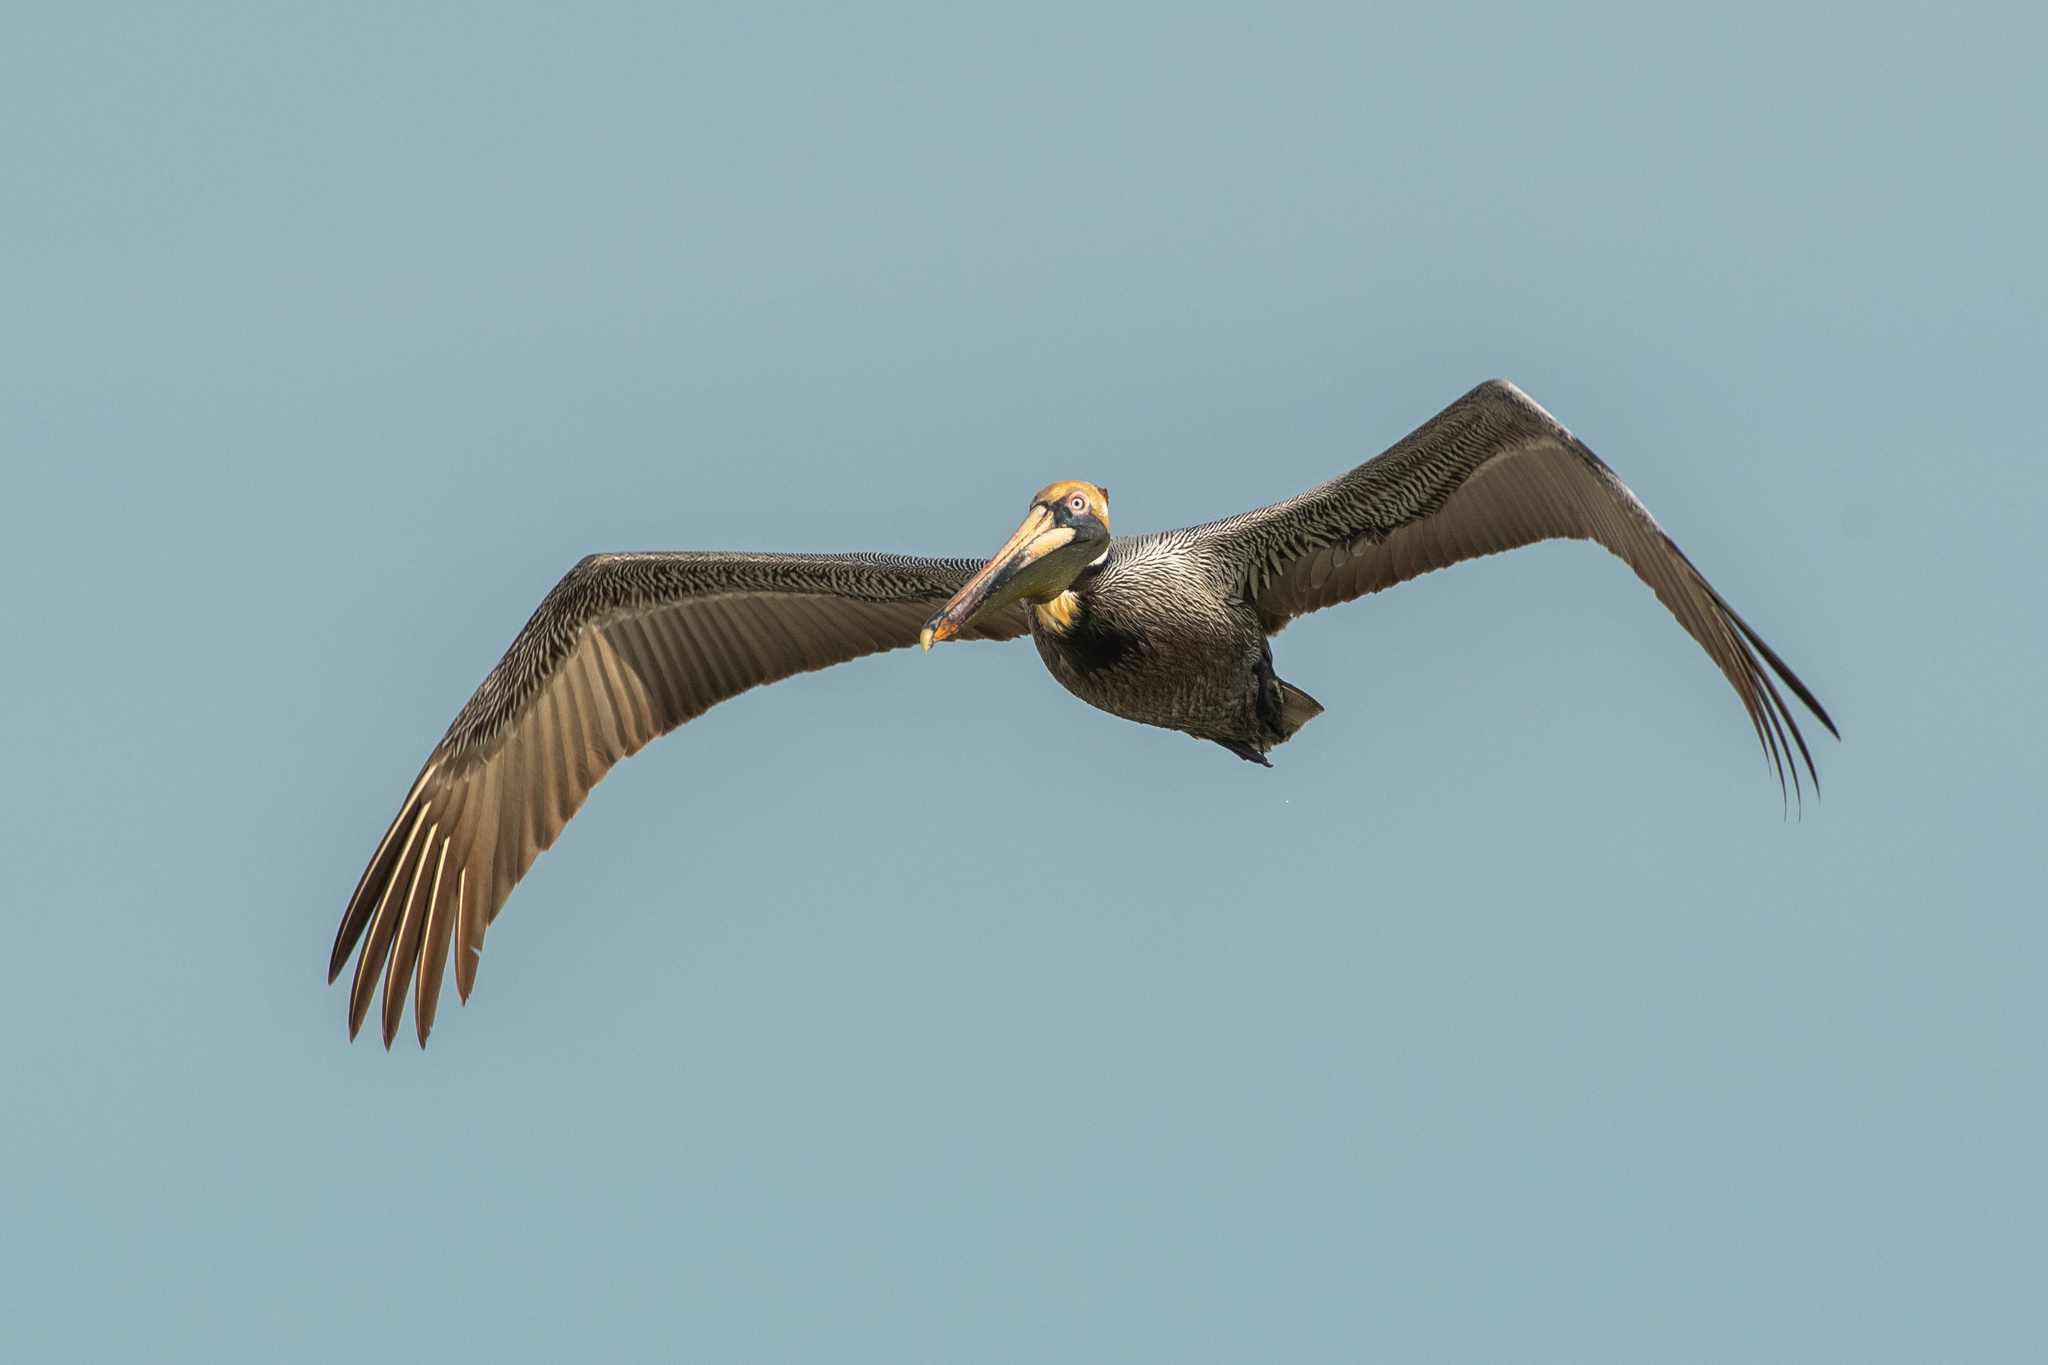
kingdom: Animalia
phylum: Chordata
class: Aves
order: Pelecaniformes
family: Pelecanidae
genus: Pelecanus
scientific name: Pelecanus occidentalis
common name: Brown pelican
